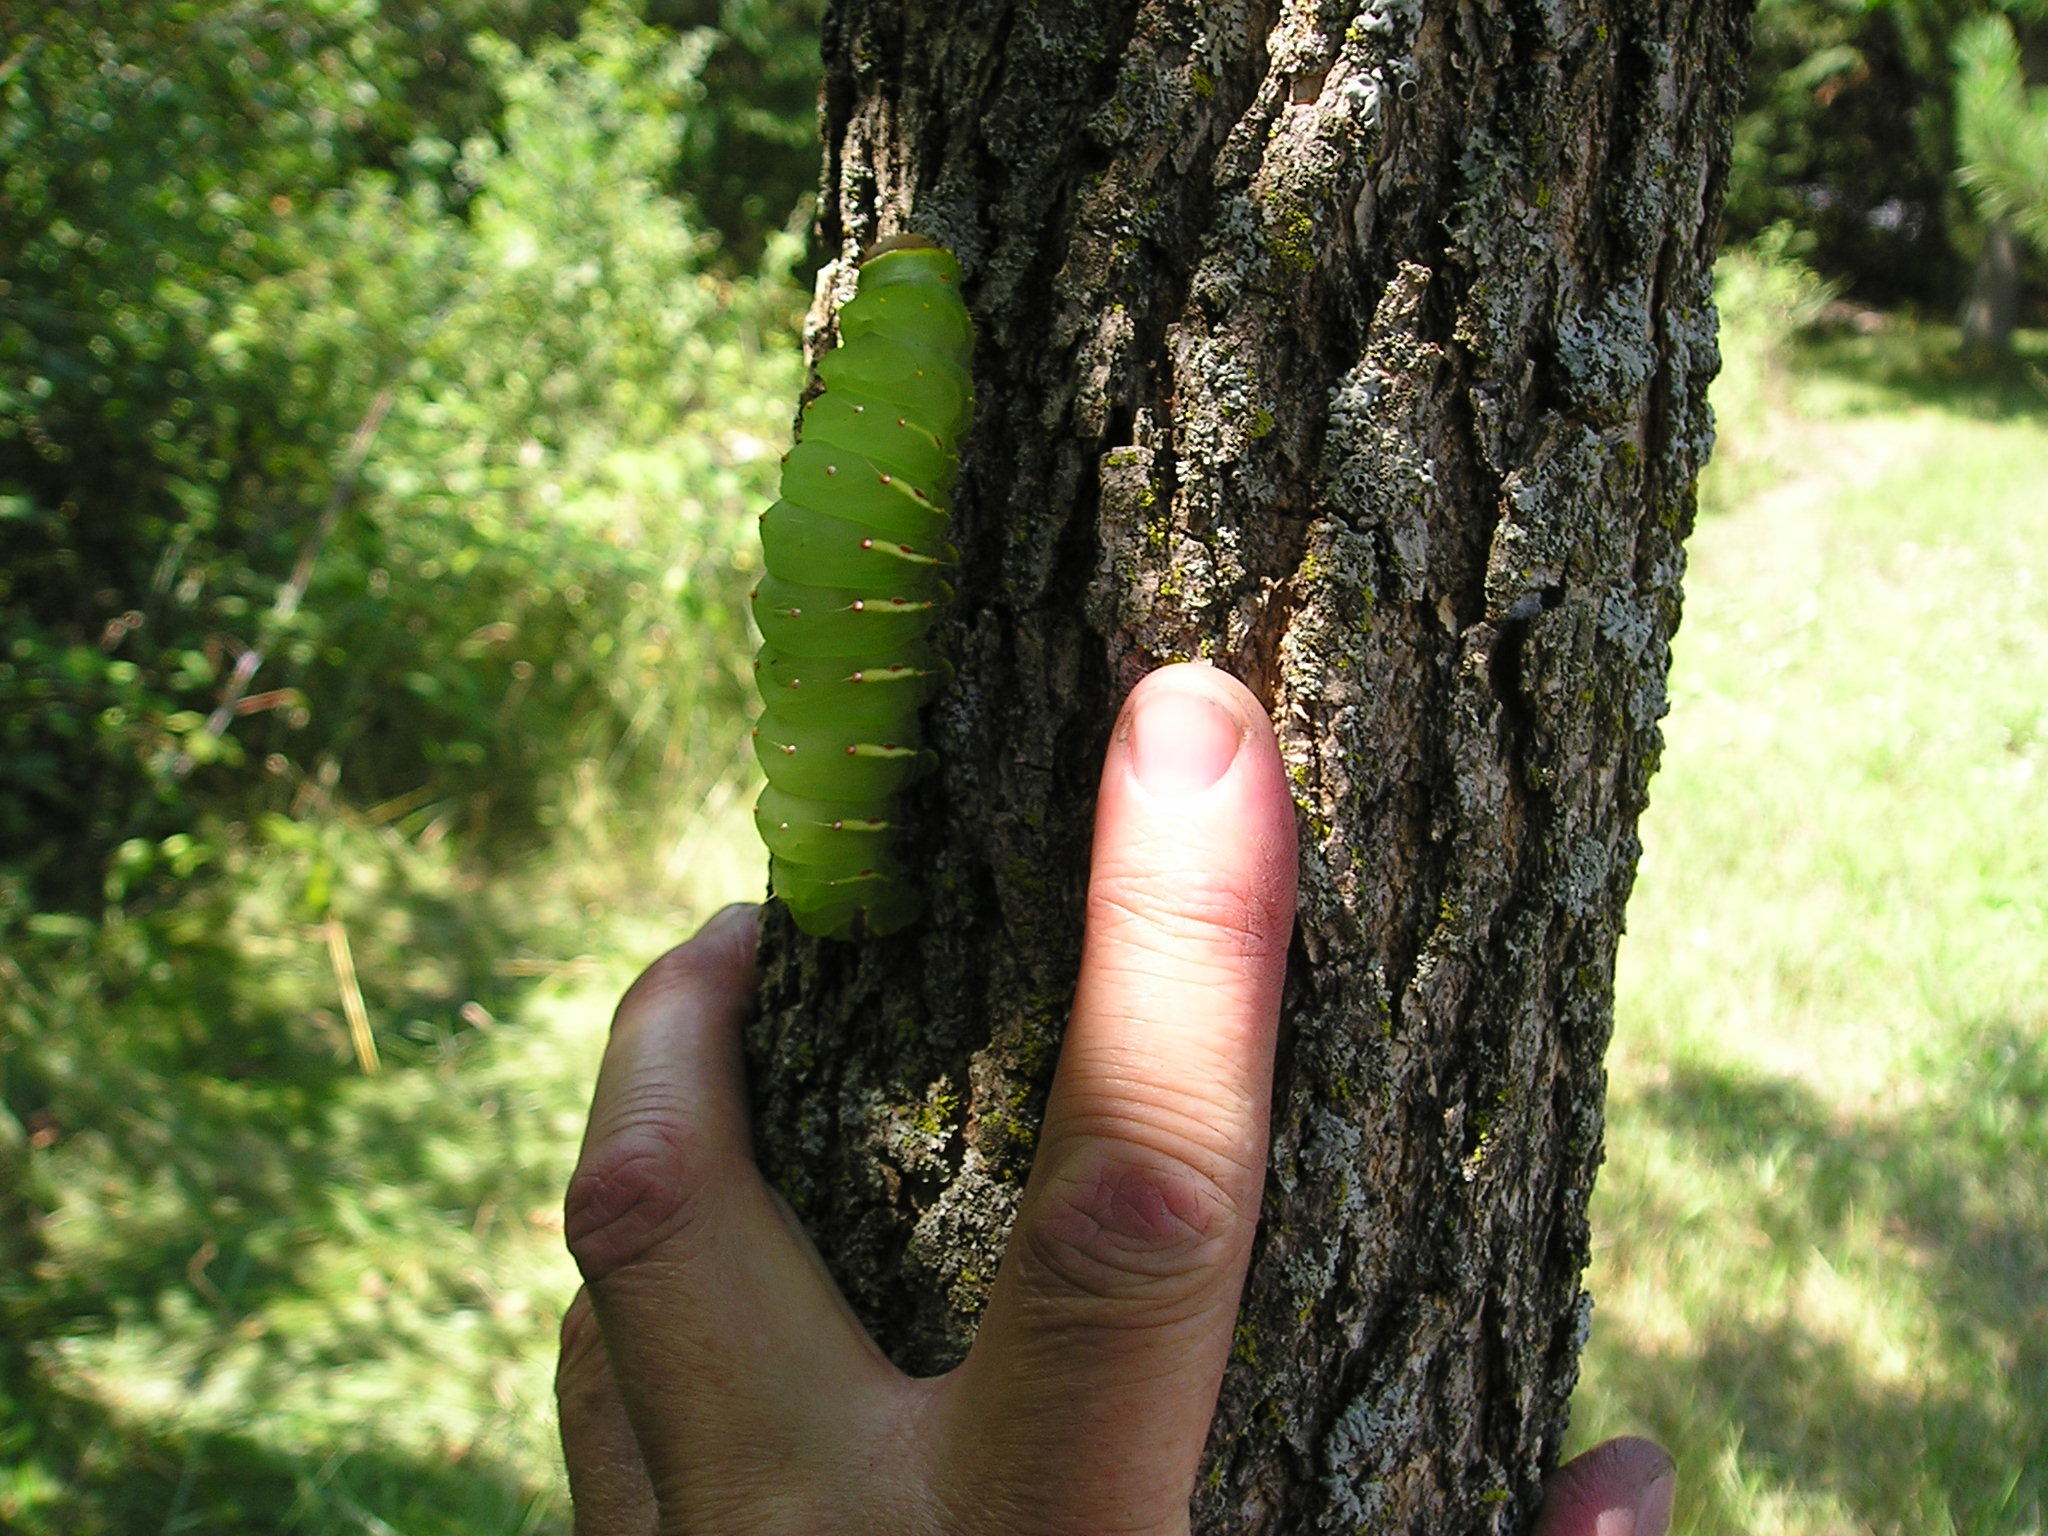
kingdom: Animalia
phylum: Arthropoda
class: Insecta
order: Lepidoptera
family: Saturniidae
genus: Antheraea
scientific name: Antheraea polyphemus
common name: Polyphemus moth
